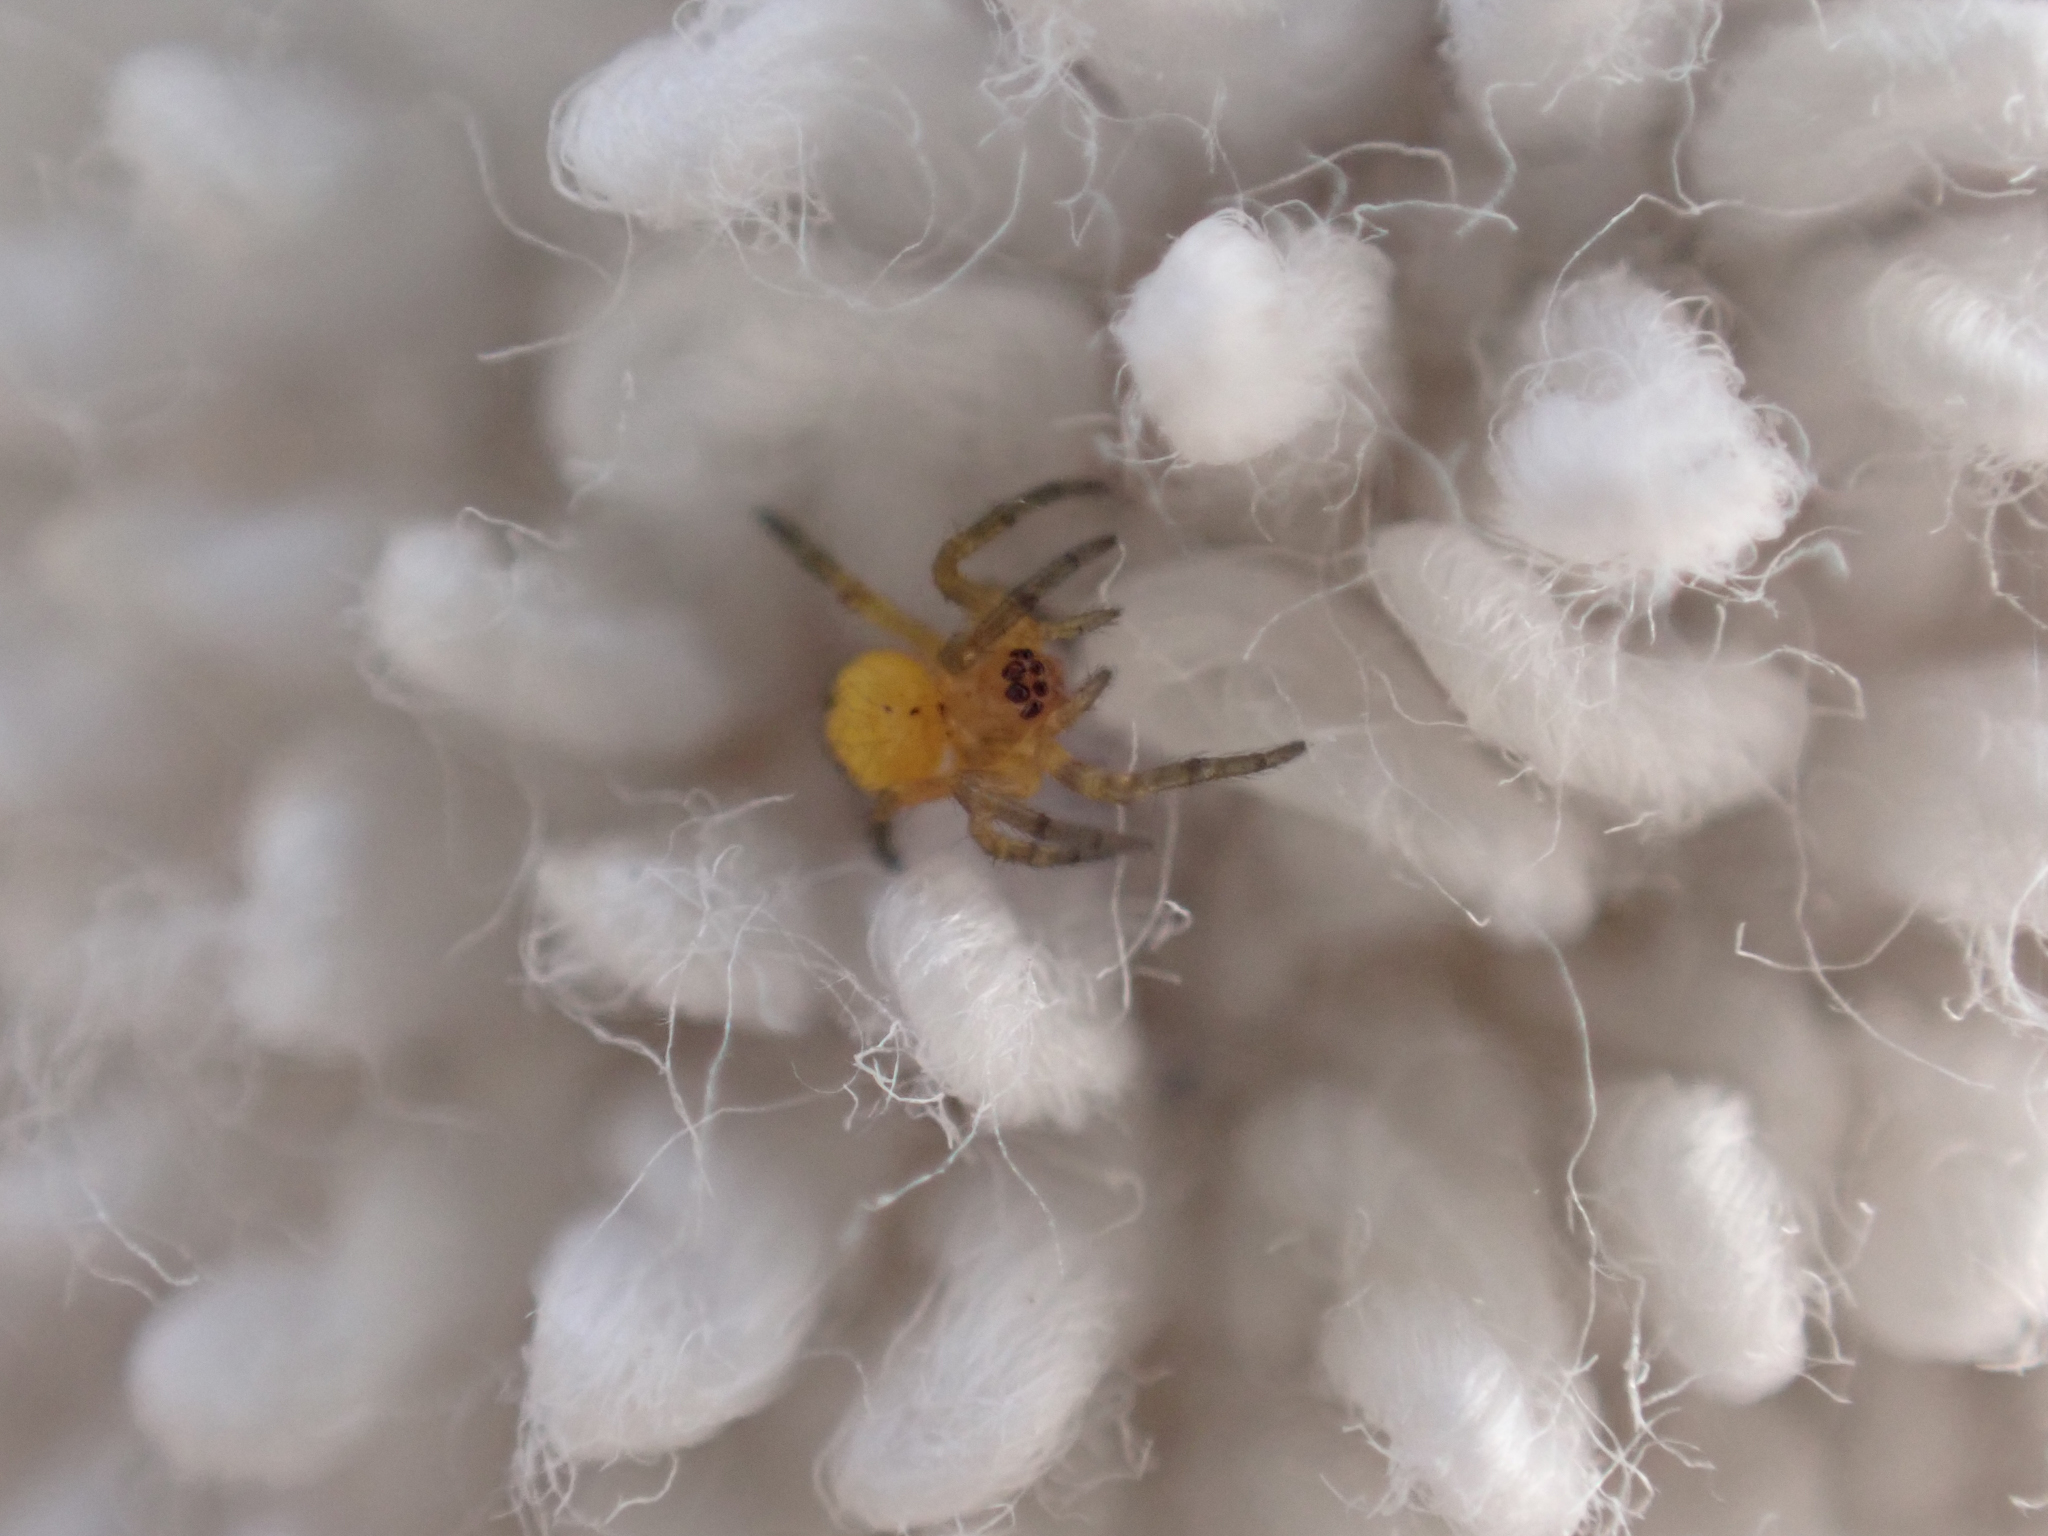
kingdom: Animalia
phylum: Arthropoda
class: Arachnida
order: Araneae
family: Araneidae
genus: Araneus
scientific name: Araneus
